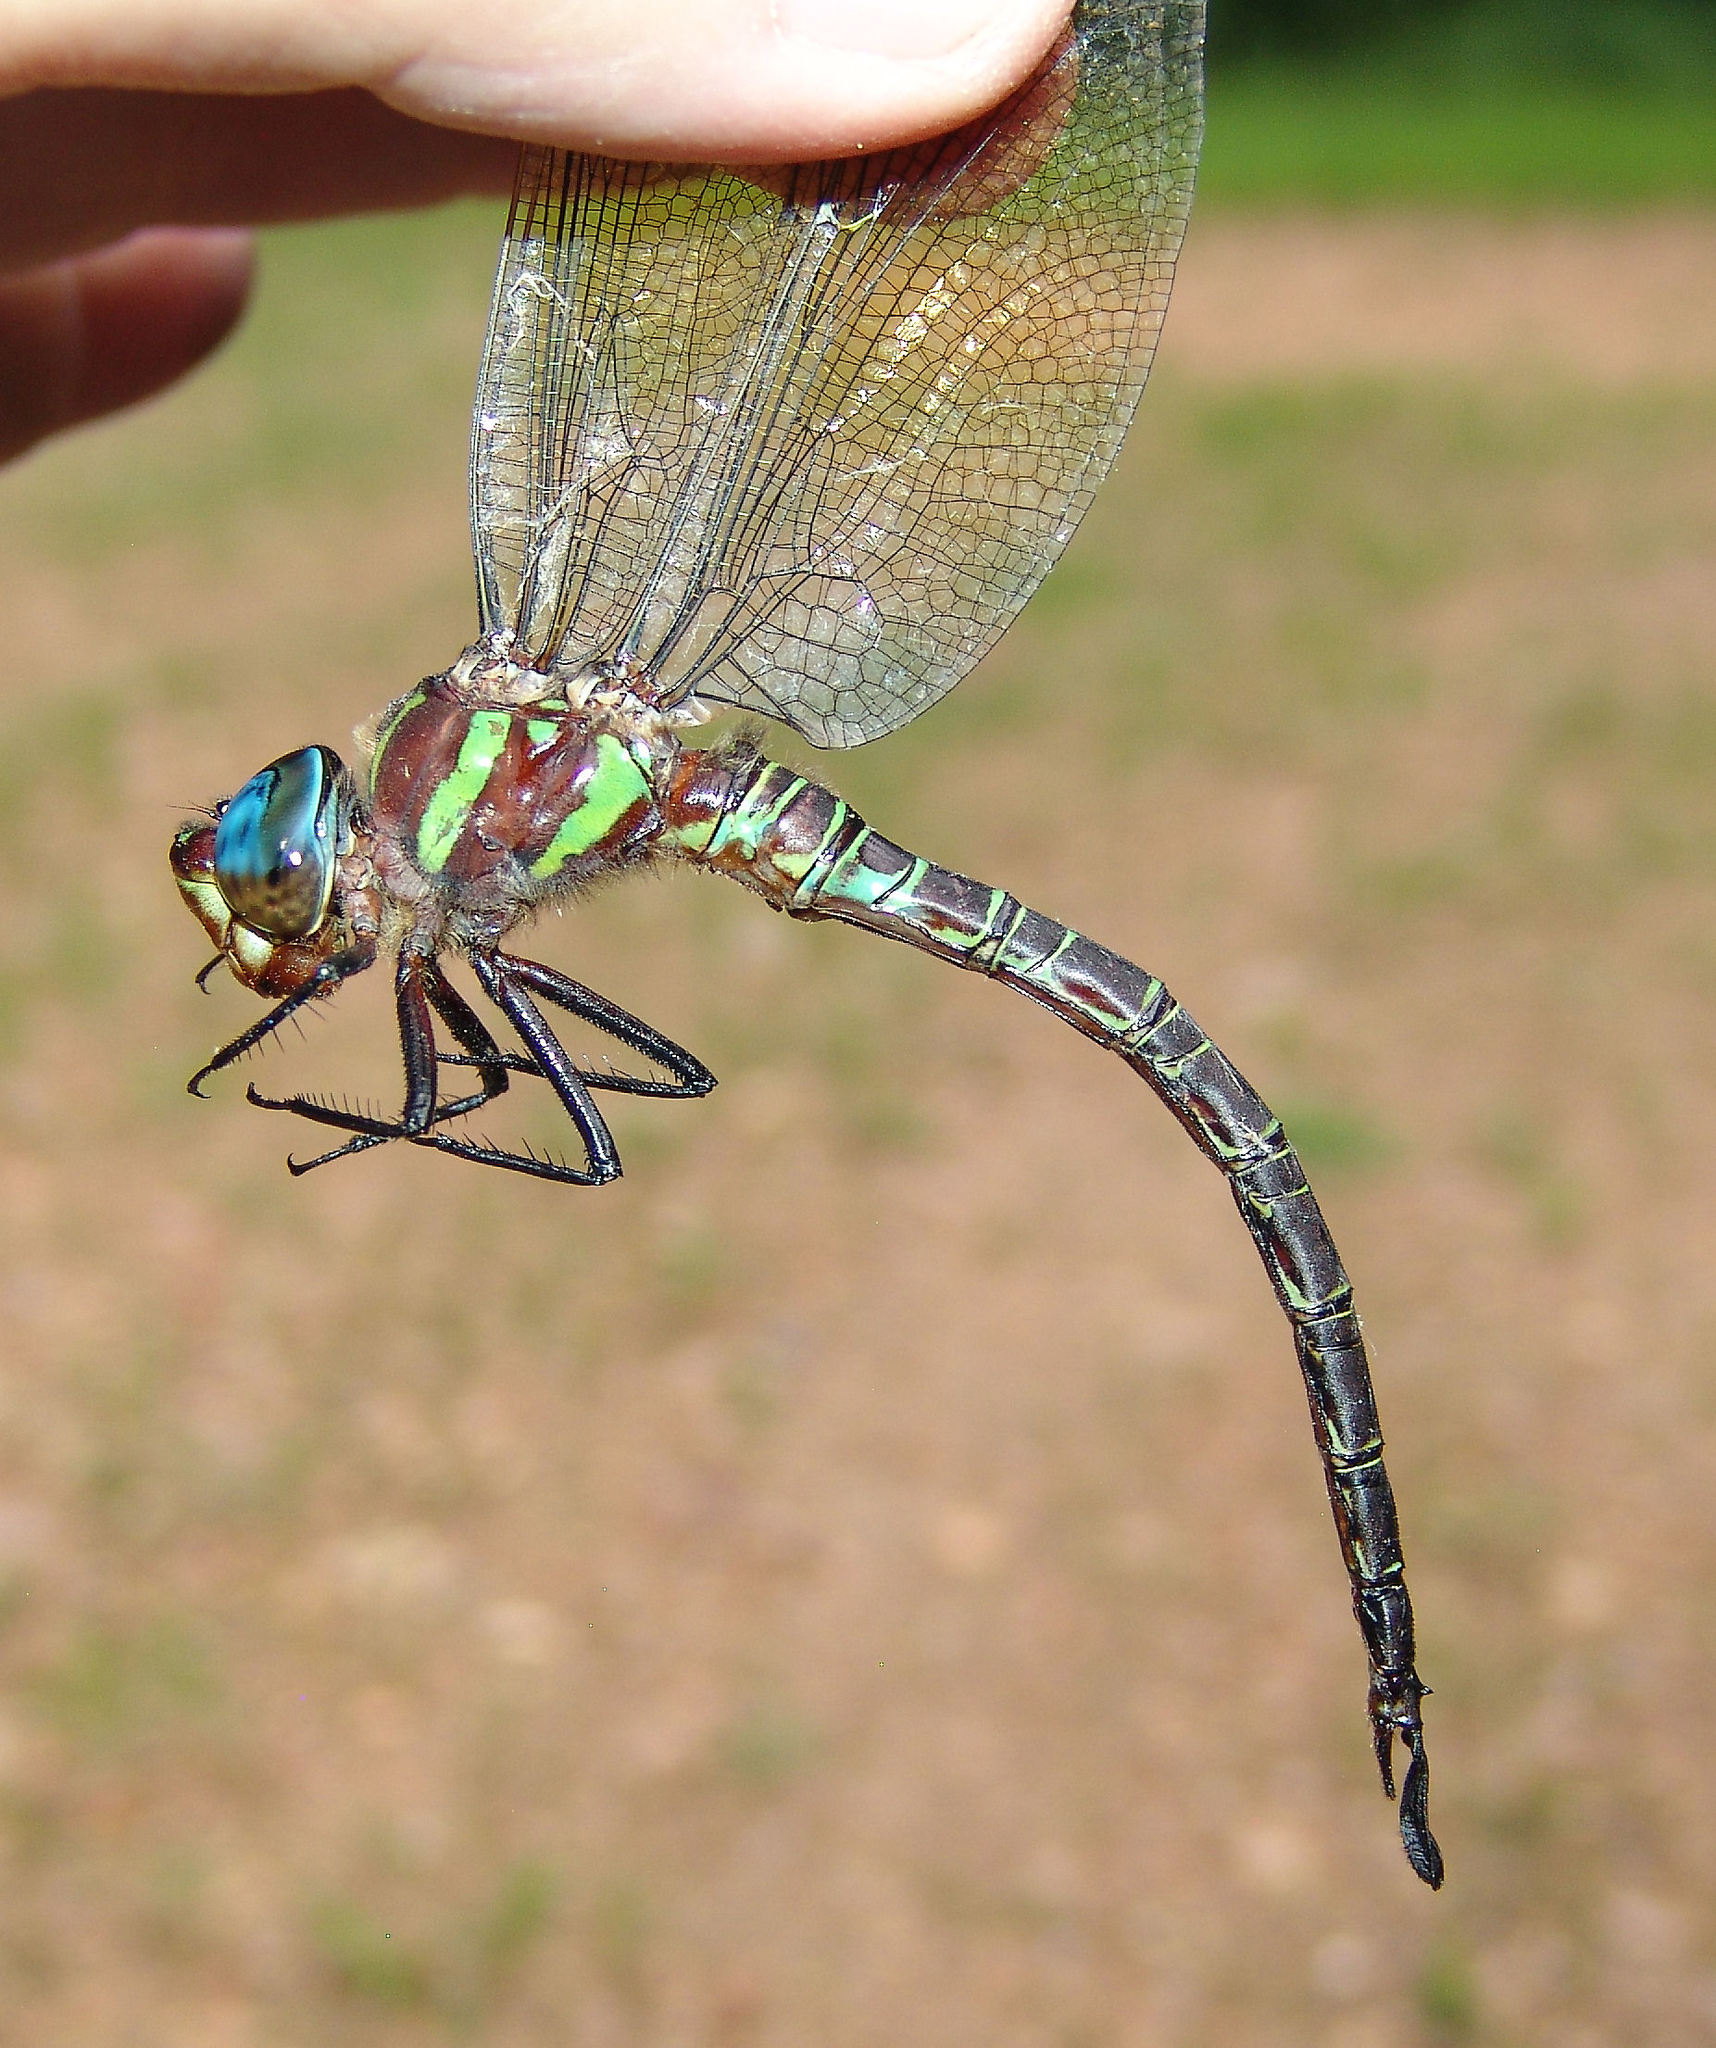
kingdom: Animalia
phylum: Arthropoda
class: Insecta
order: Odonata
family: Aeshnidae
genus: Epiaeschna
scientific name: Epiaeschna heros
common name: Swamp darner
